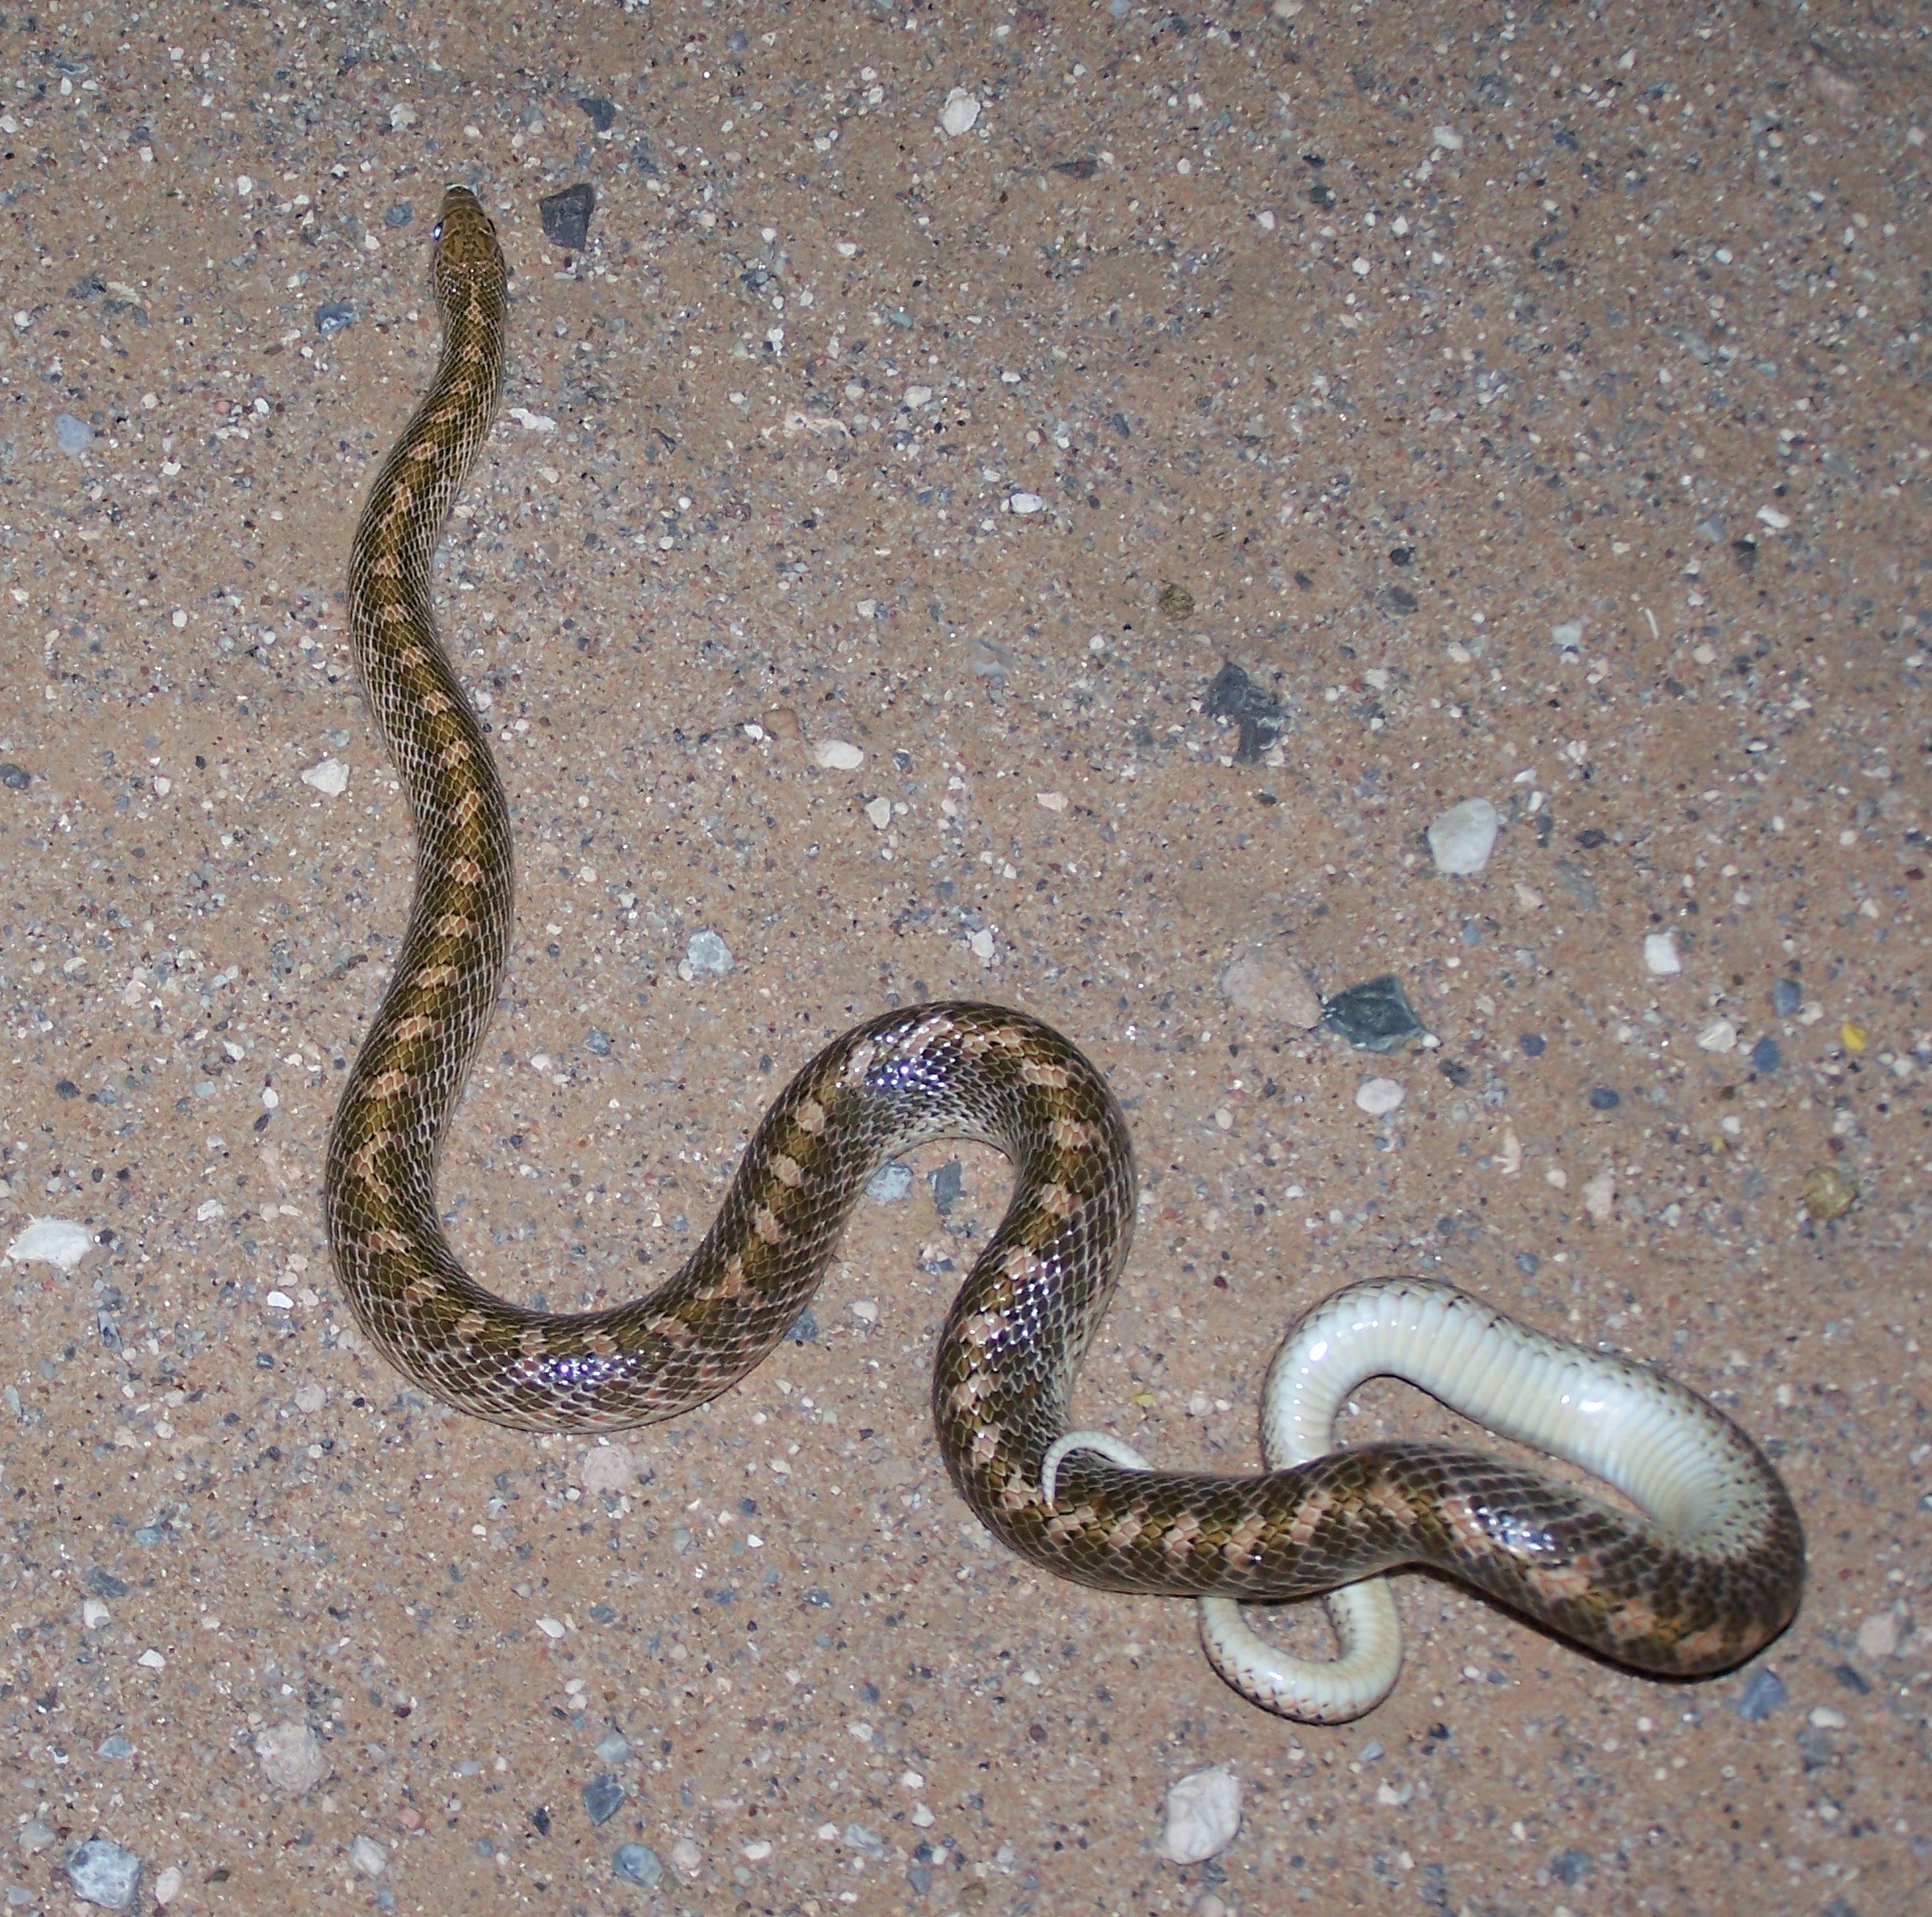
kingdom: Animalia
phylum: Chordata
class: Squamata
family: Colubridae
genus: Arizona
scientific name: Arizona elegans
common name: Glossy snake
